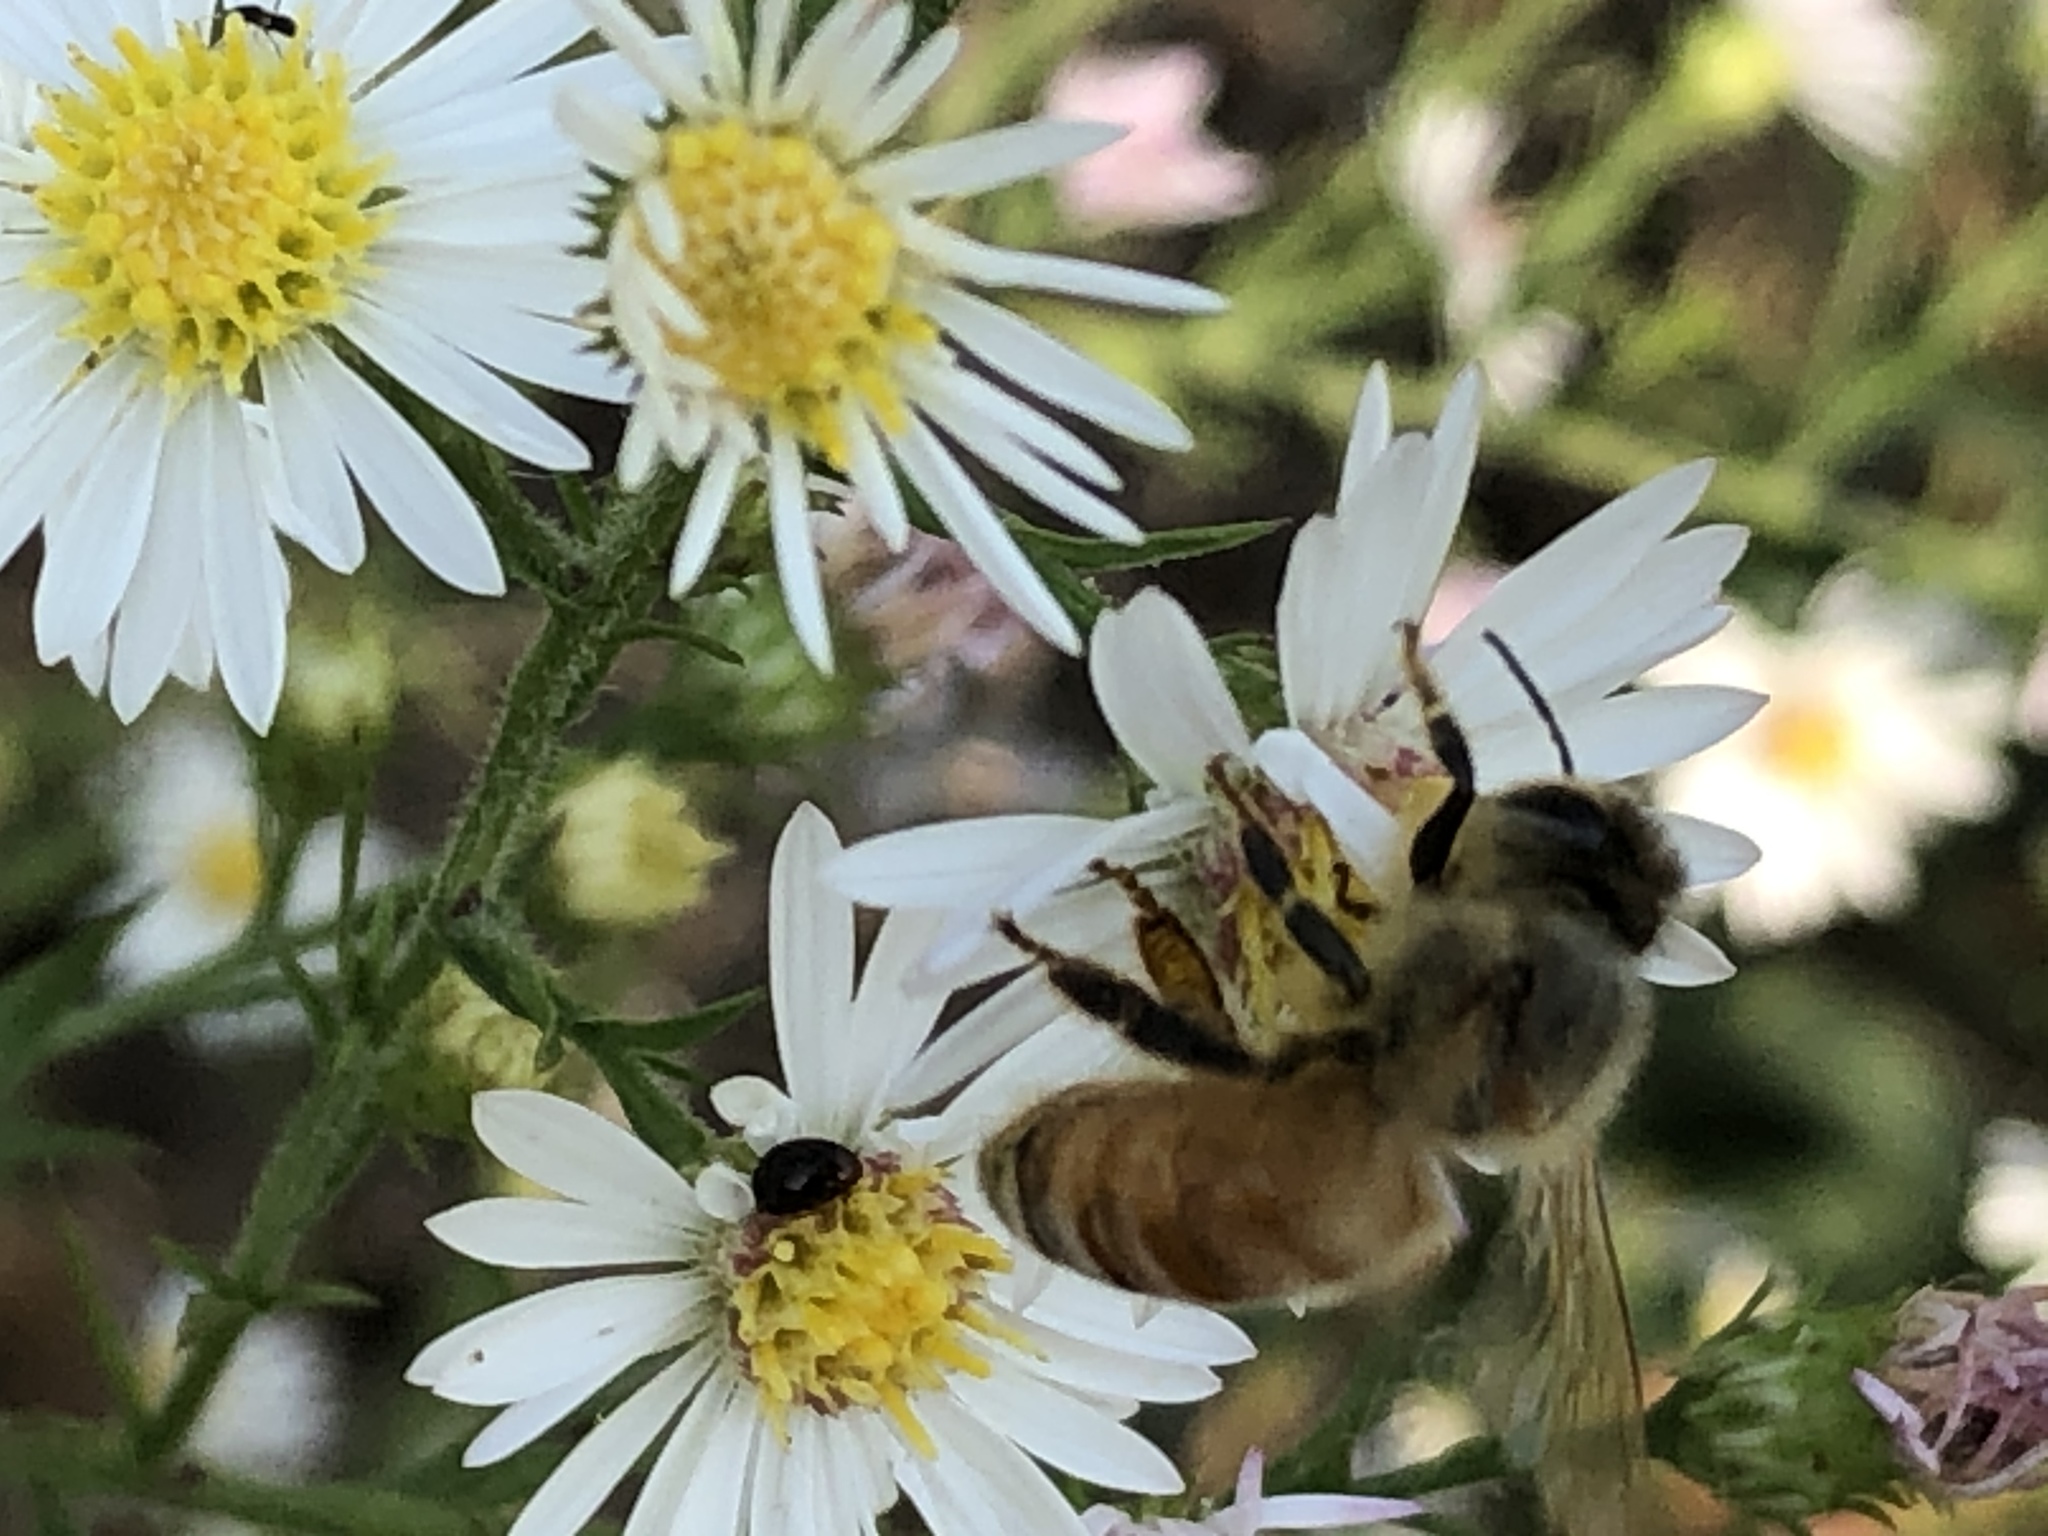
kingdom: Animalia
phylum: Arthropoda
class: Insecta
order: Hymenoptera
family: Apidae
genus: Apis
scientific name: Apis mellifera
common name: Honey bee
